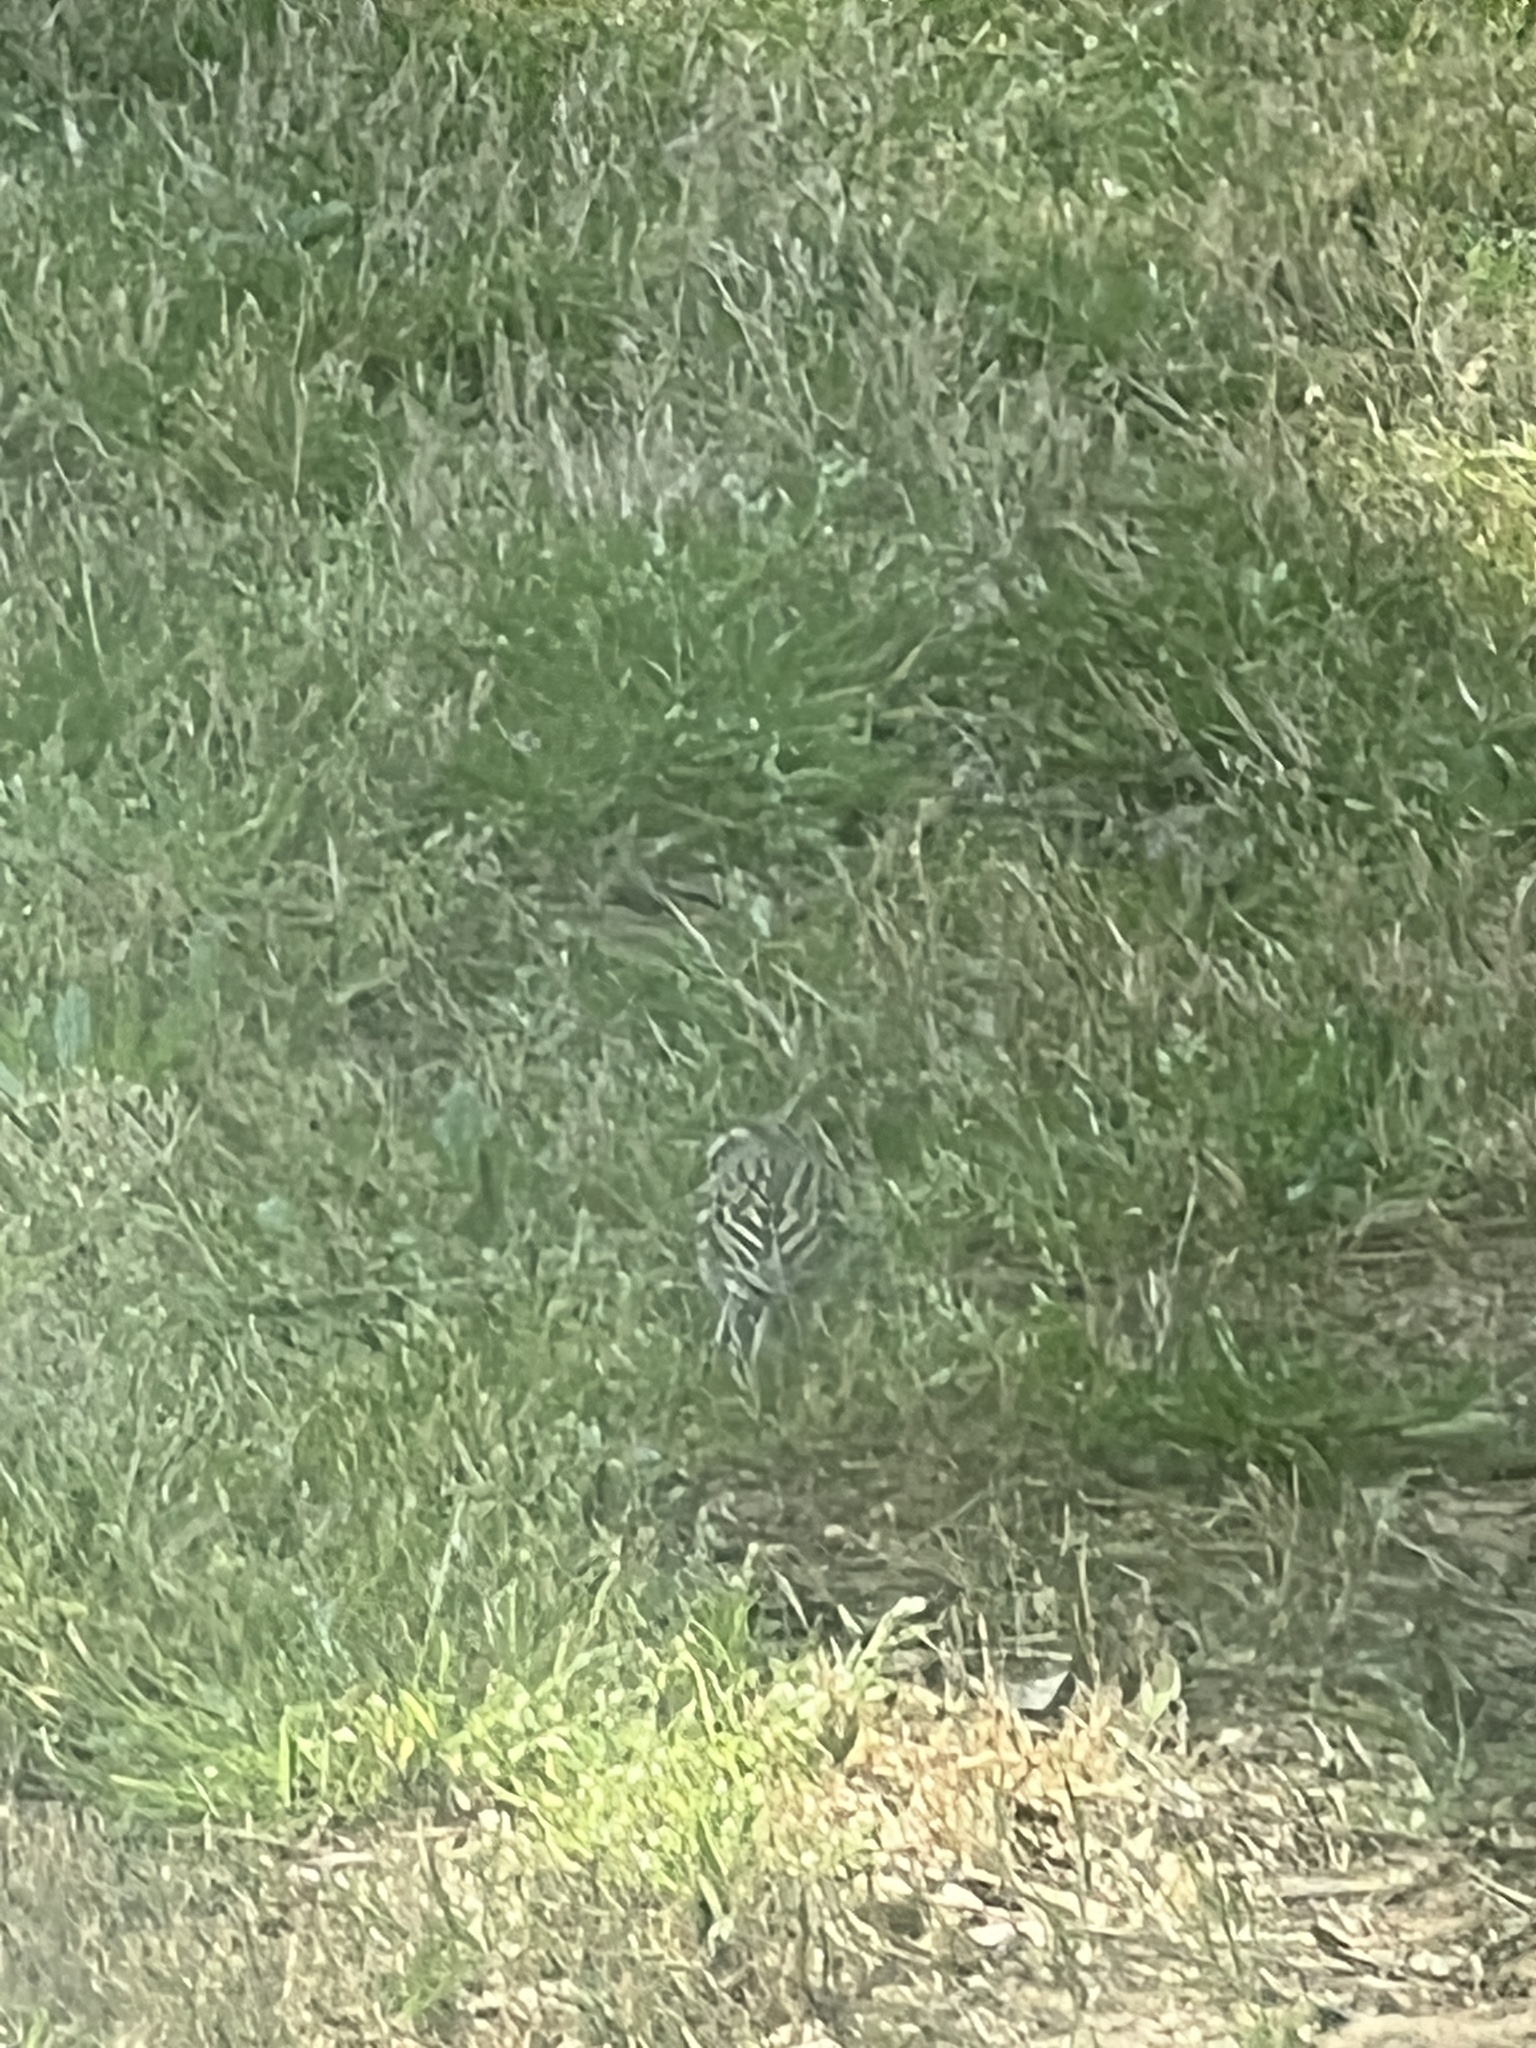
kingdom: Animalia
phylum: Chordata
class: Aves
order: Passeriformes
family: Passerellidae
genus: Spizella
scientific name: Spizella passerina
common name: Chipping sparrow
